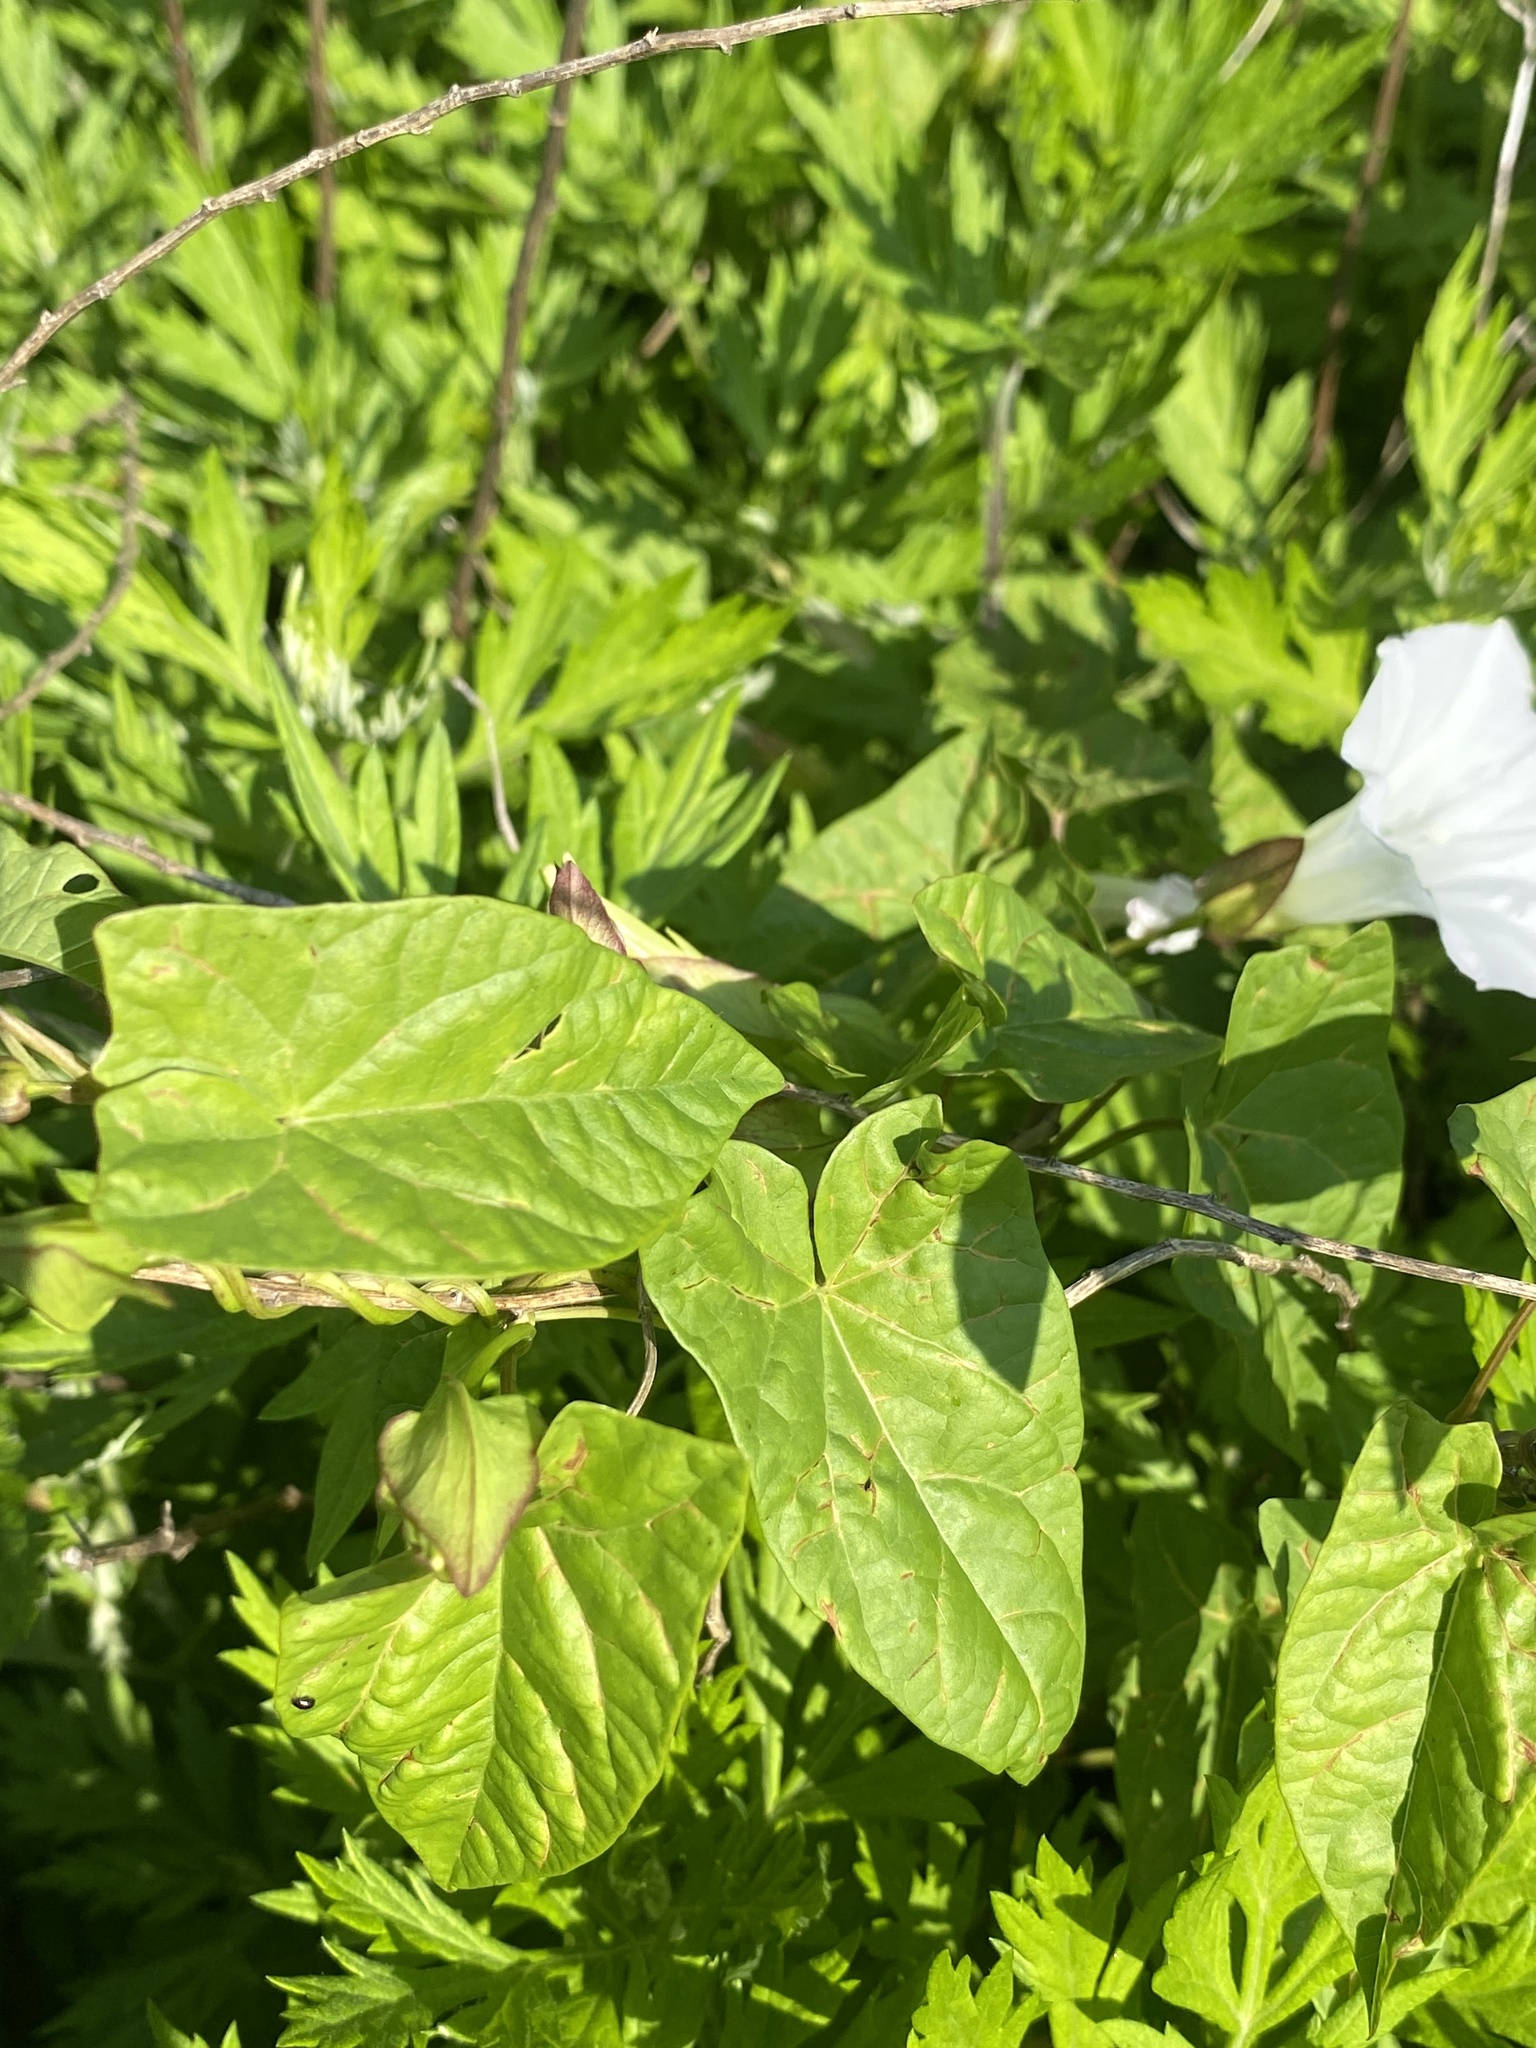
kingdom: Plantae
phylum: Tracheophyta
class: Magnoliopsida
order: Solanales
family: Convolvulaceae
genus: Calystegia
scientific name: Calystegia sepium
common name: Hedge bindweed
